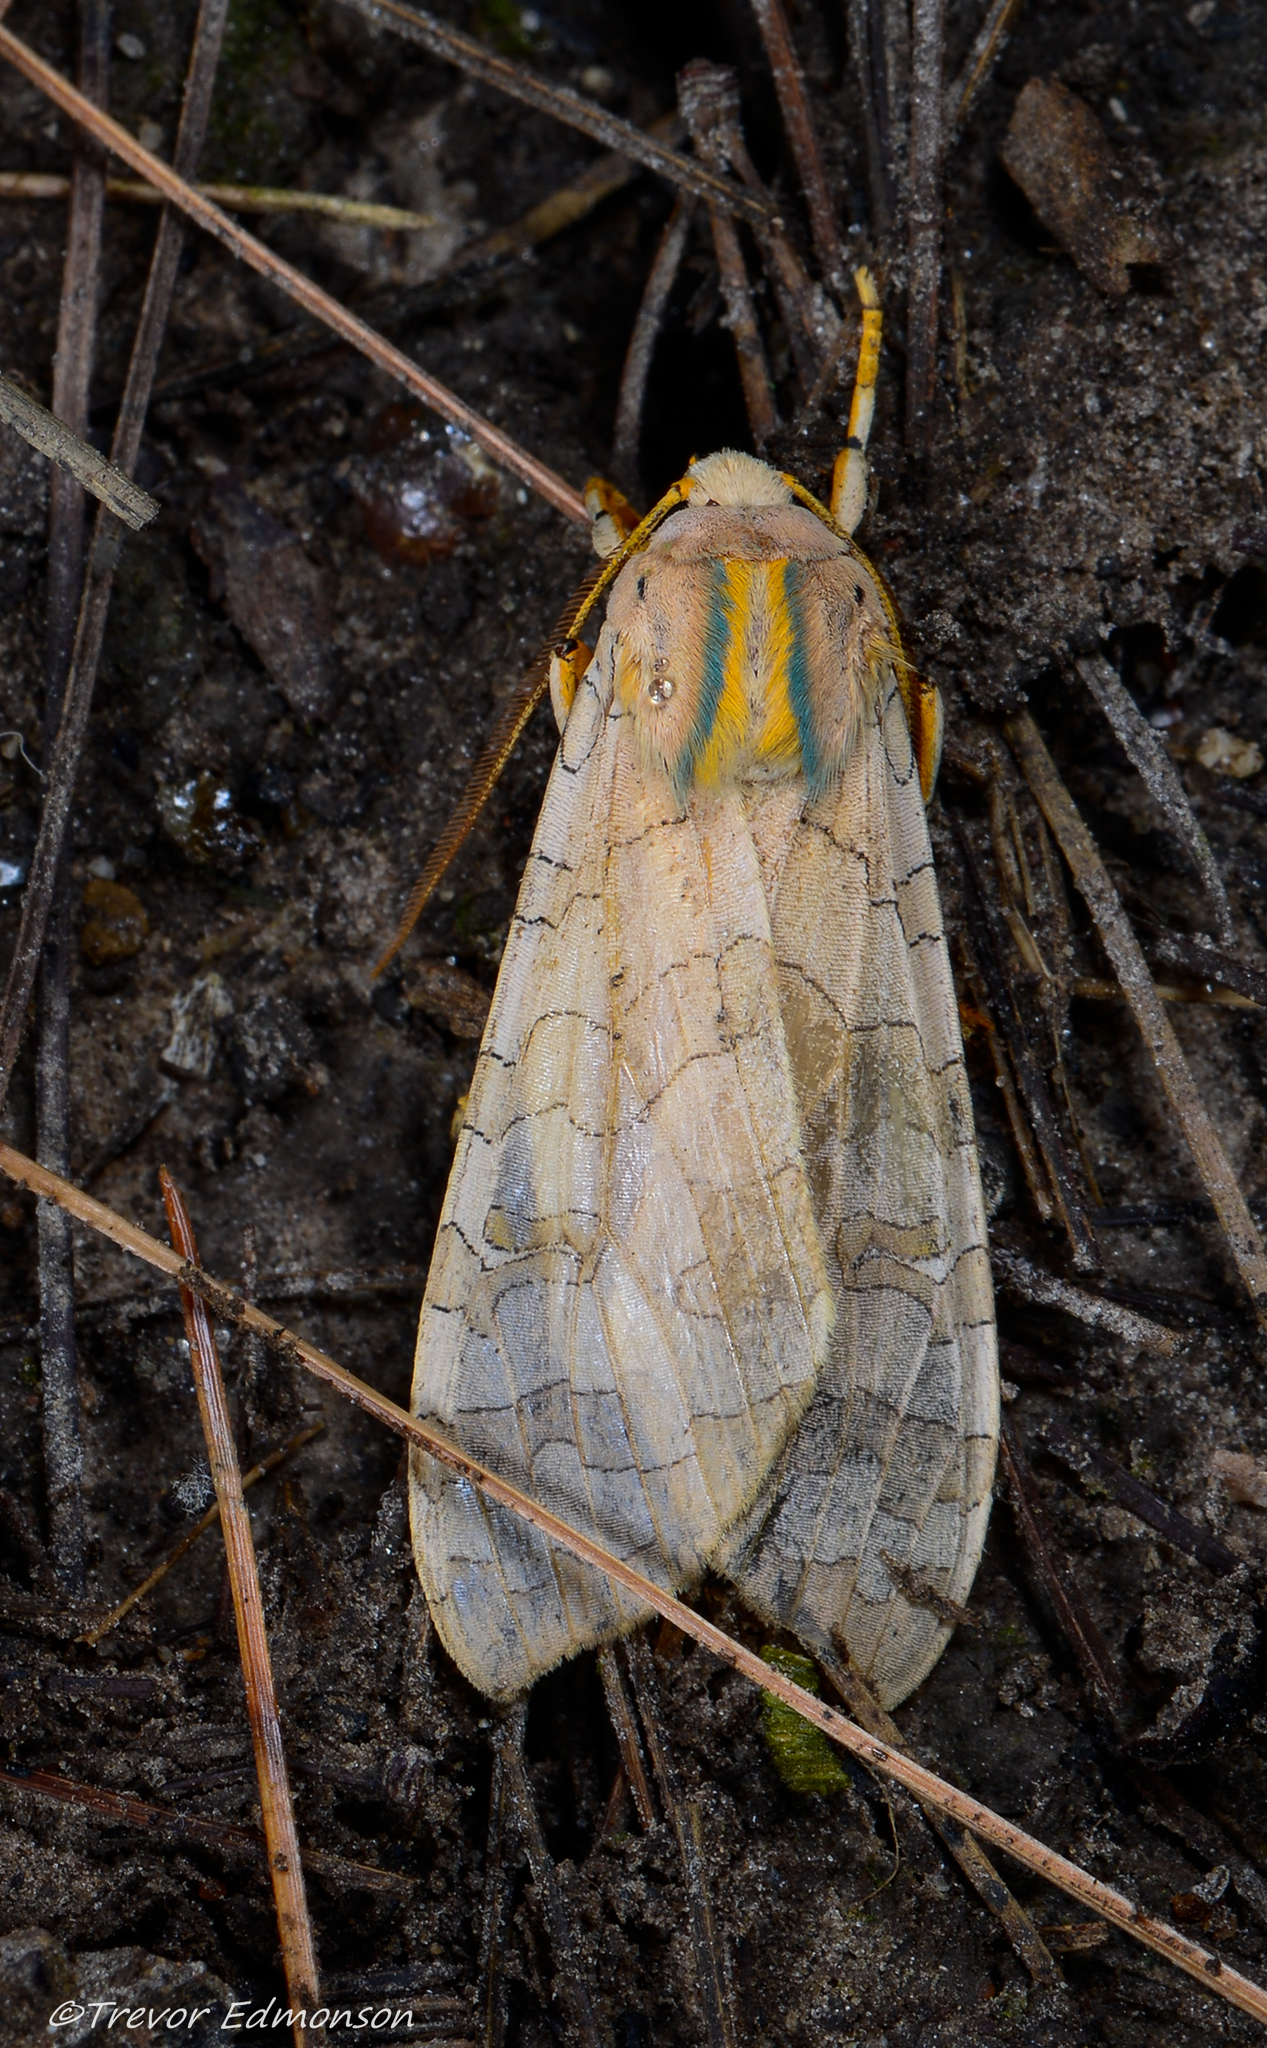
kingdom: Animalia
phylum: Arthropoda
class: Insecta
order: Lepidoptera
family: Erebidae
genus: Halysidota
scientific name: Halysidota
